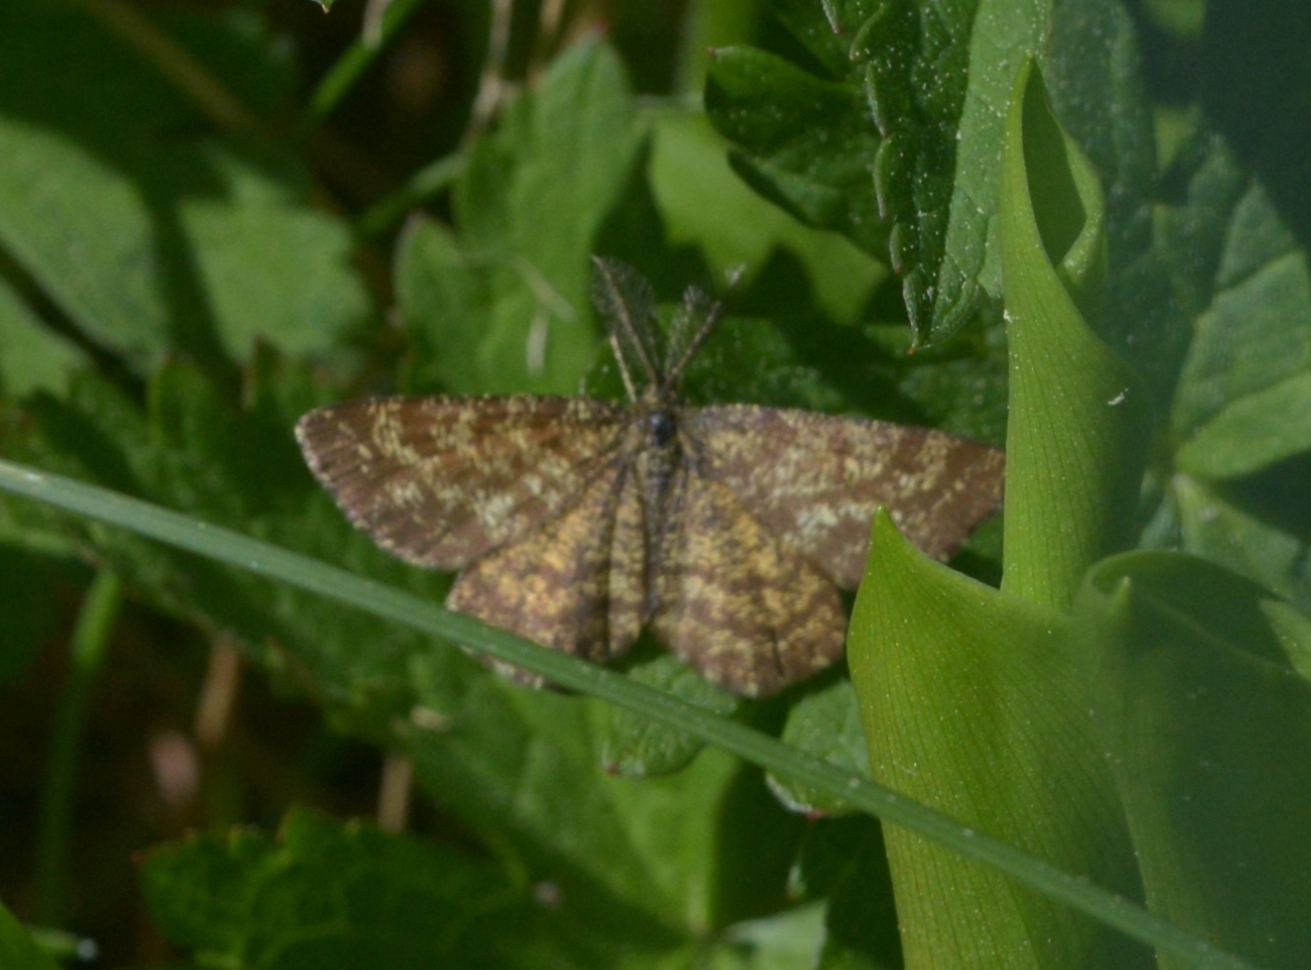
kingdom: Animalia
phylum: Arthropoda
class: Insecta
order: Lepidoptera
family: Geometridae
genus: Ematurga
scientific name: Ematurga atomaria
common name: Common heath
